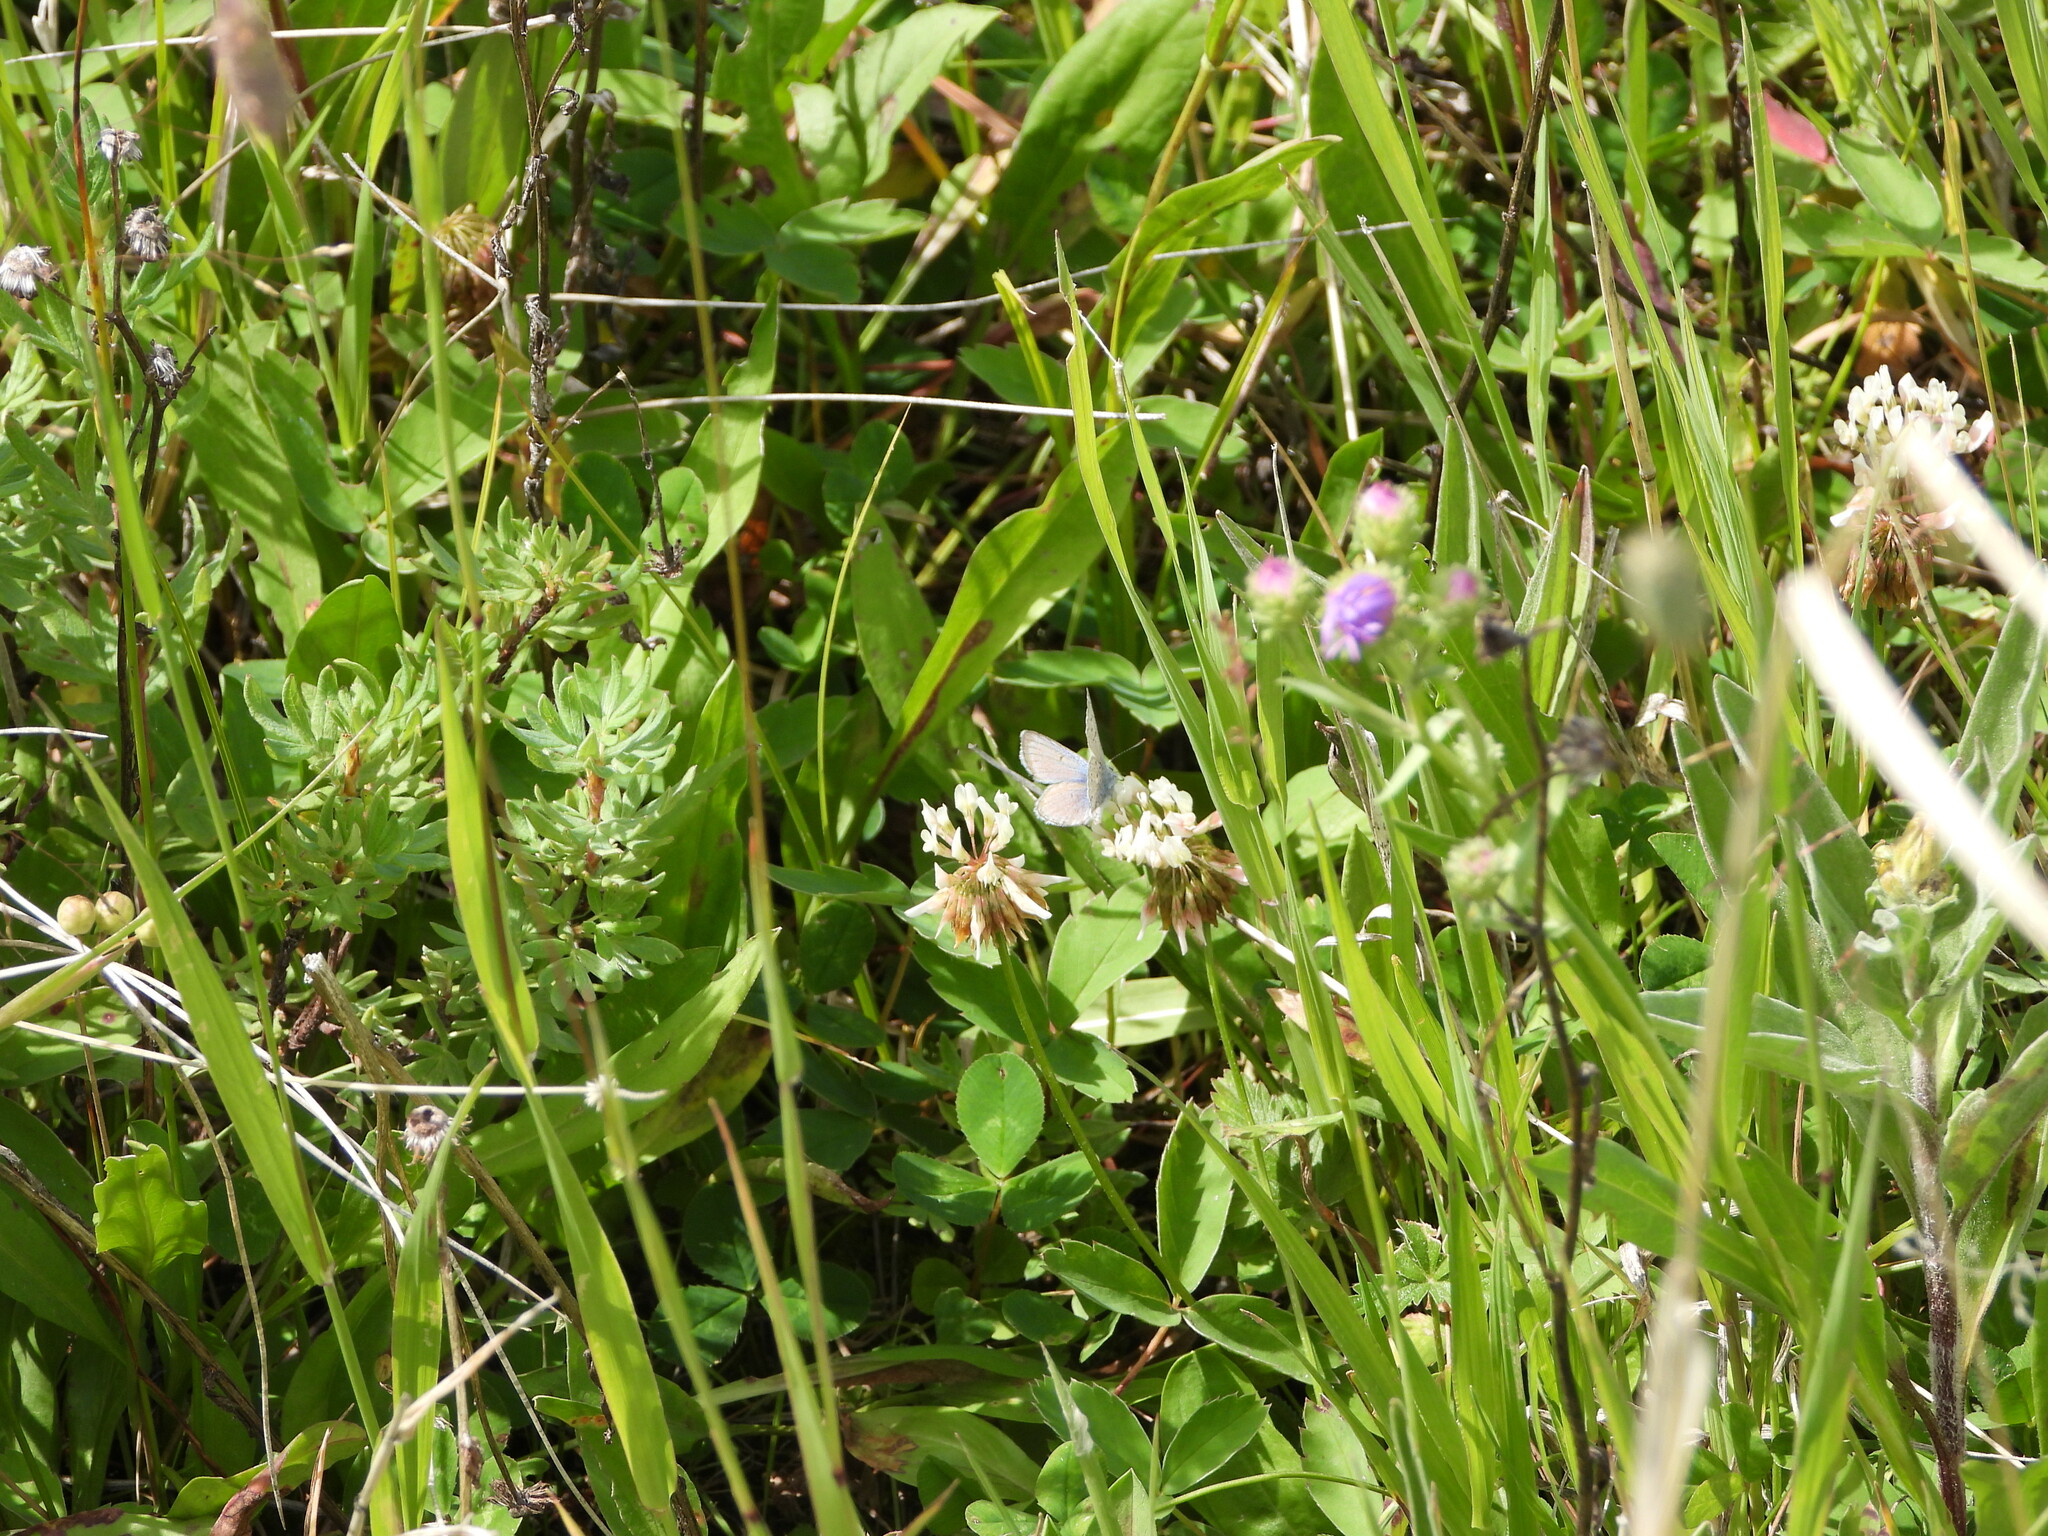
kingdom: Plantae
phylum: Tracheophyta
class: Magnoliopsida
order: Fabales
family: Fabaceae
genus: Trifolium
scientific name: Trifolium repens
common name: White clover
